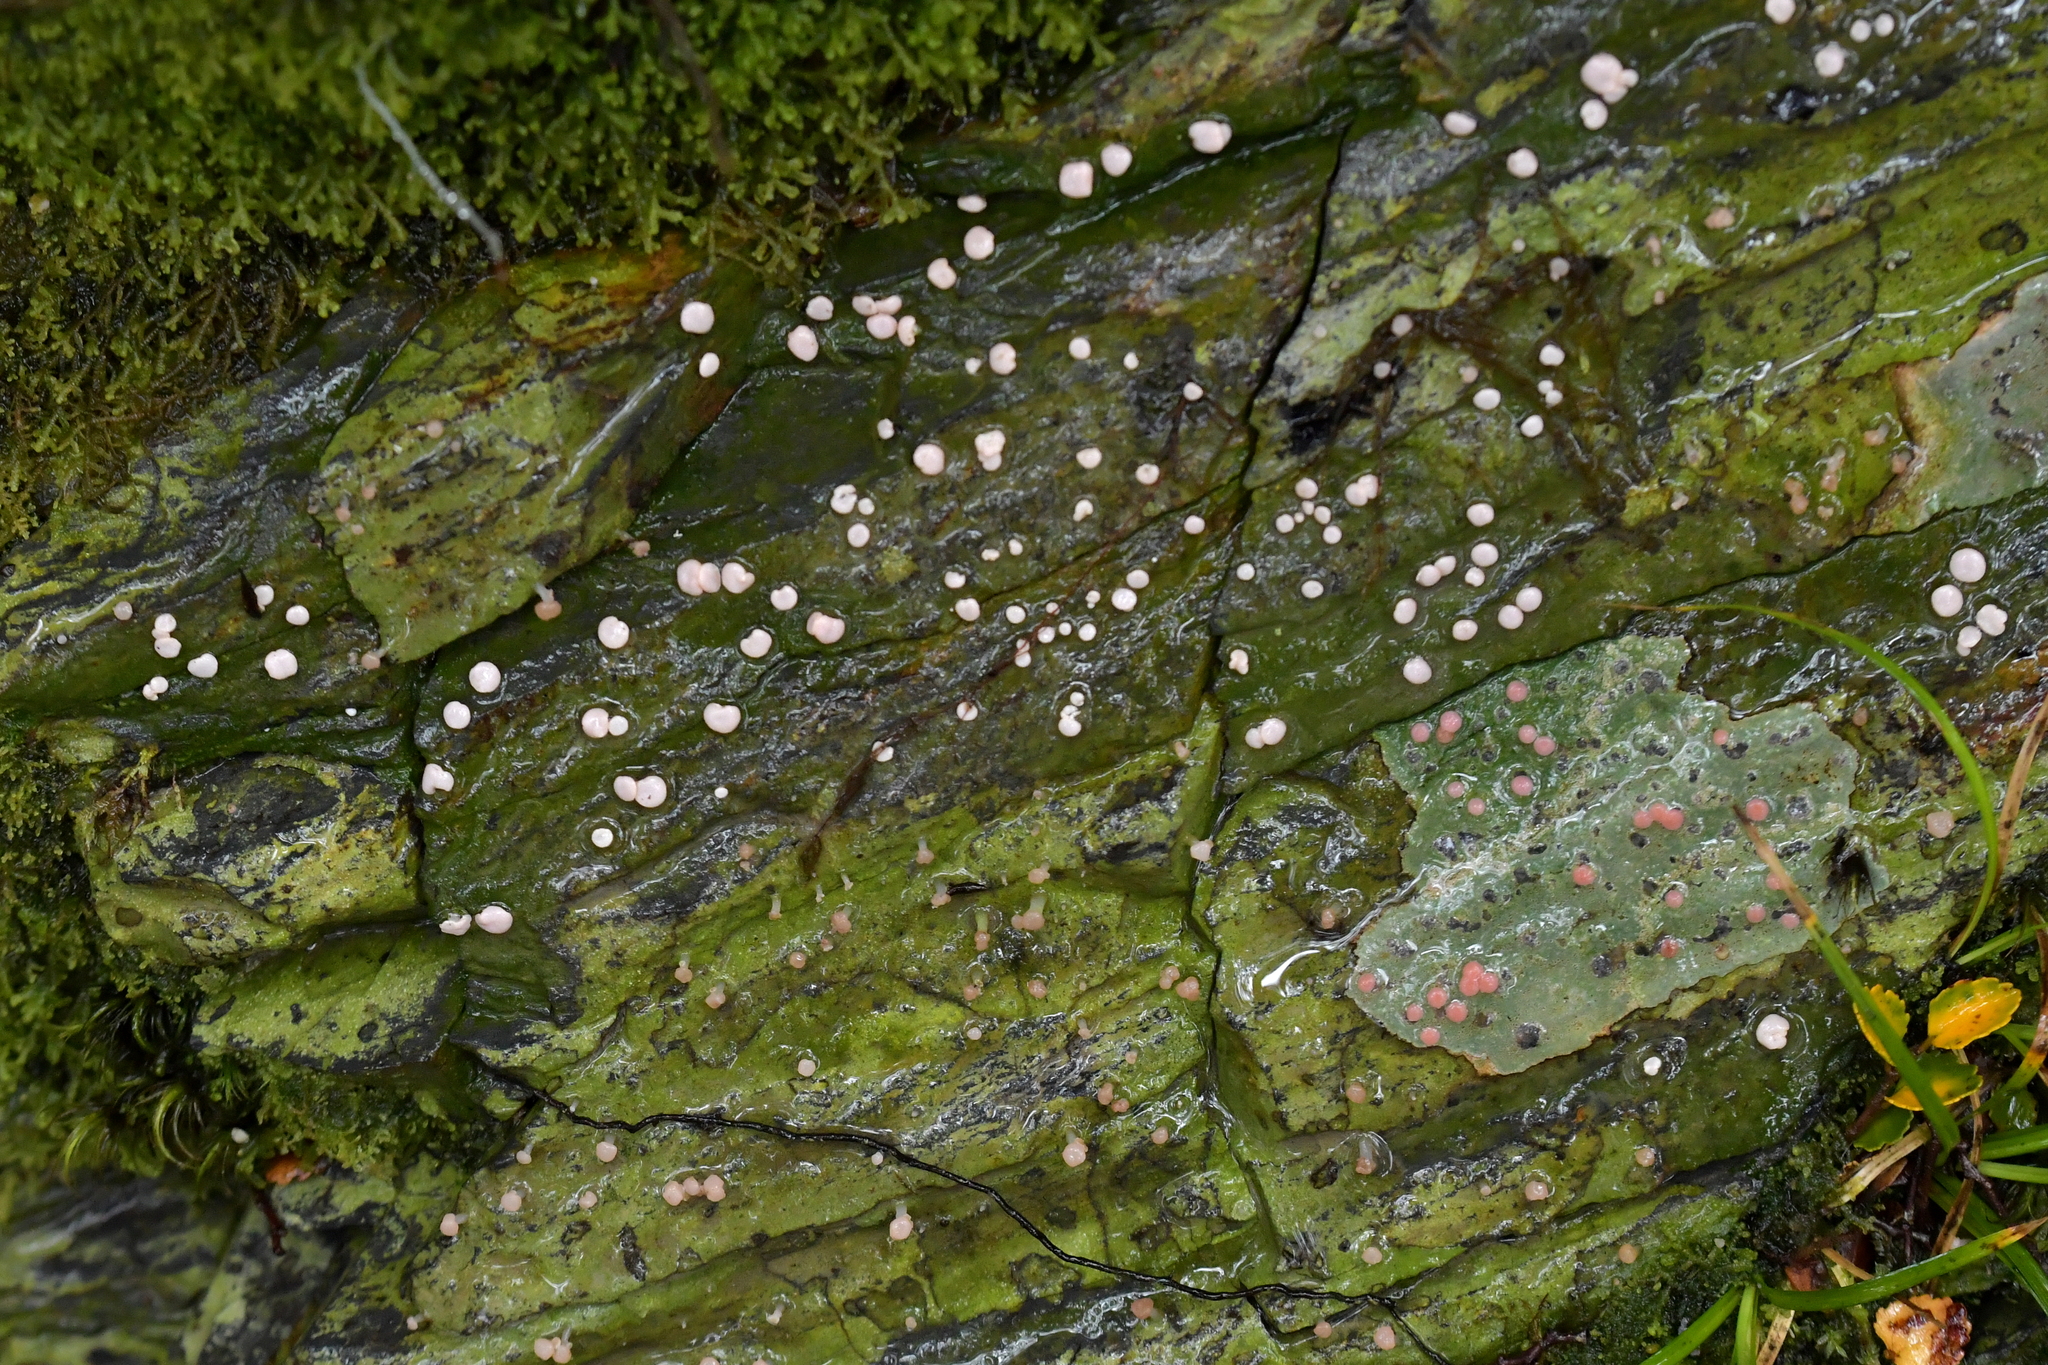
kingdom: Fungi
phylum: Ascomycota
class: Lecanoromycetes
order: Pertusariales
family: Icmadophilaceae
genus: Dibaeis
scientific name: Dibaeis absoluta
